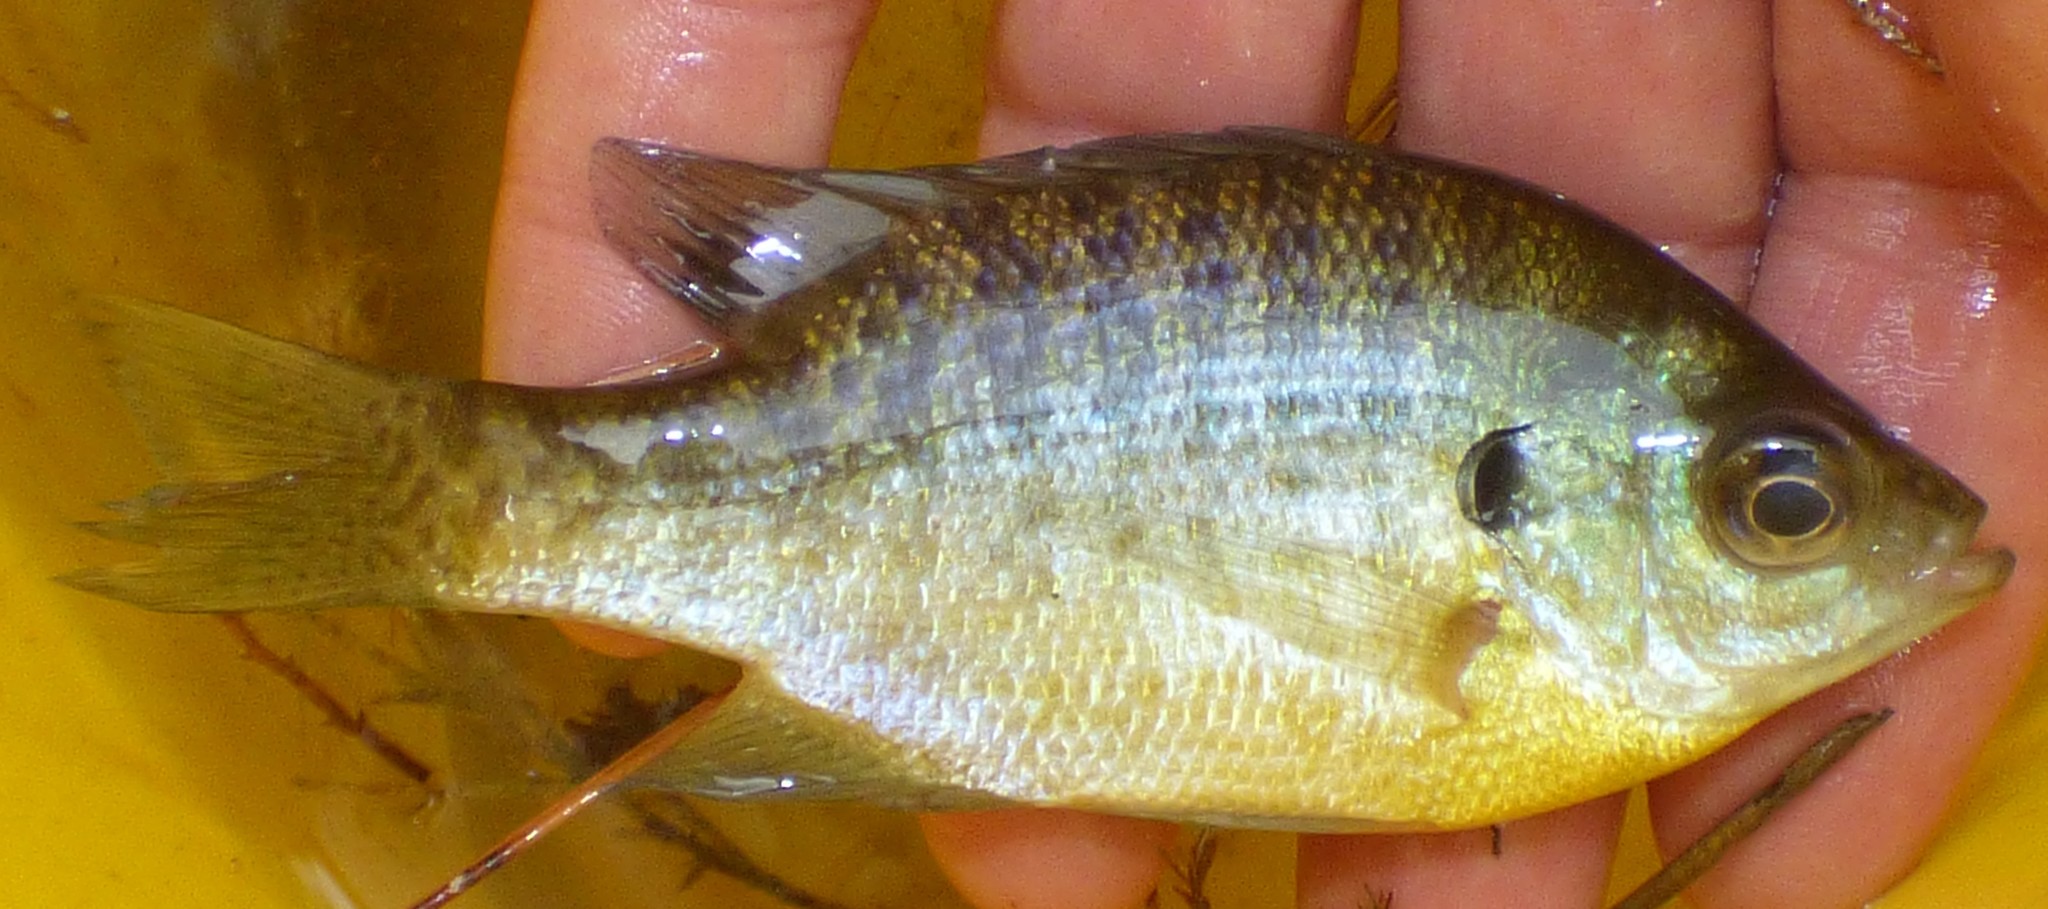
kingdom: Animalia
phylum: Chordata
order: Perciformes
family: Centrarchidae
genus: Lepomis
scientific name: Lepomis macrochirus
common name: Bluegill
